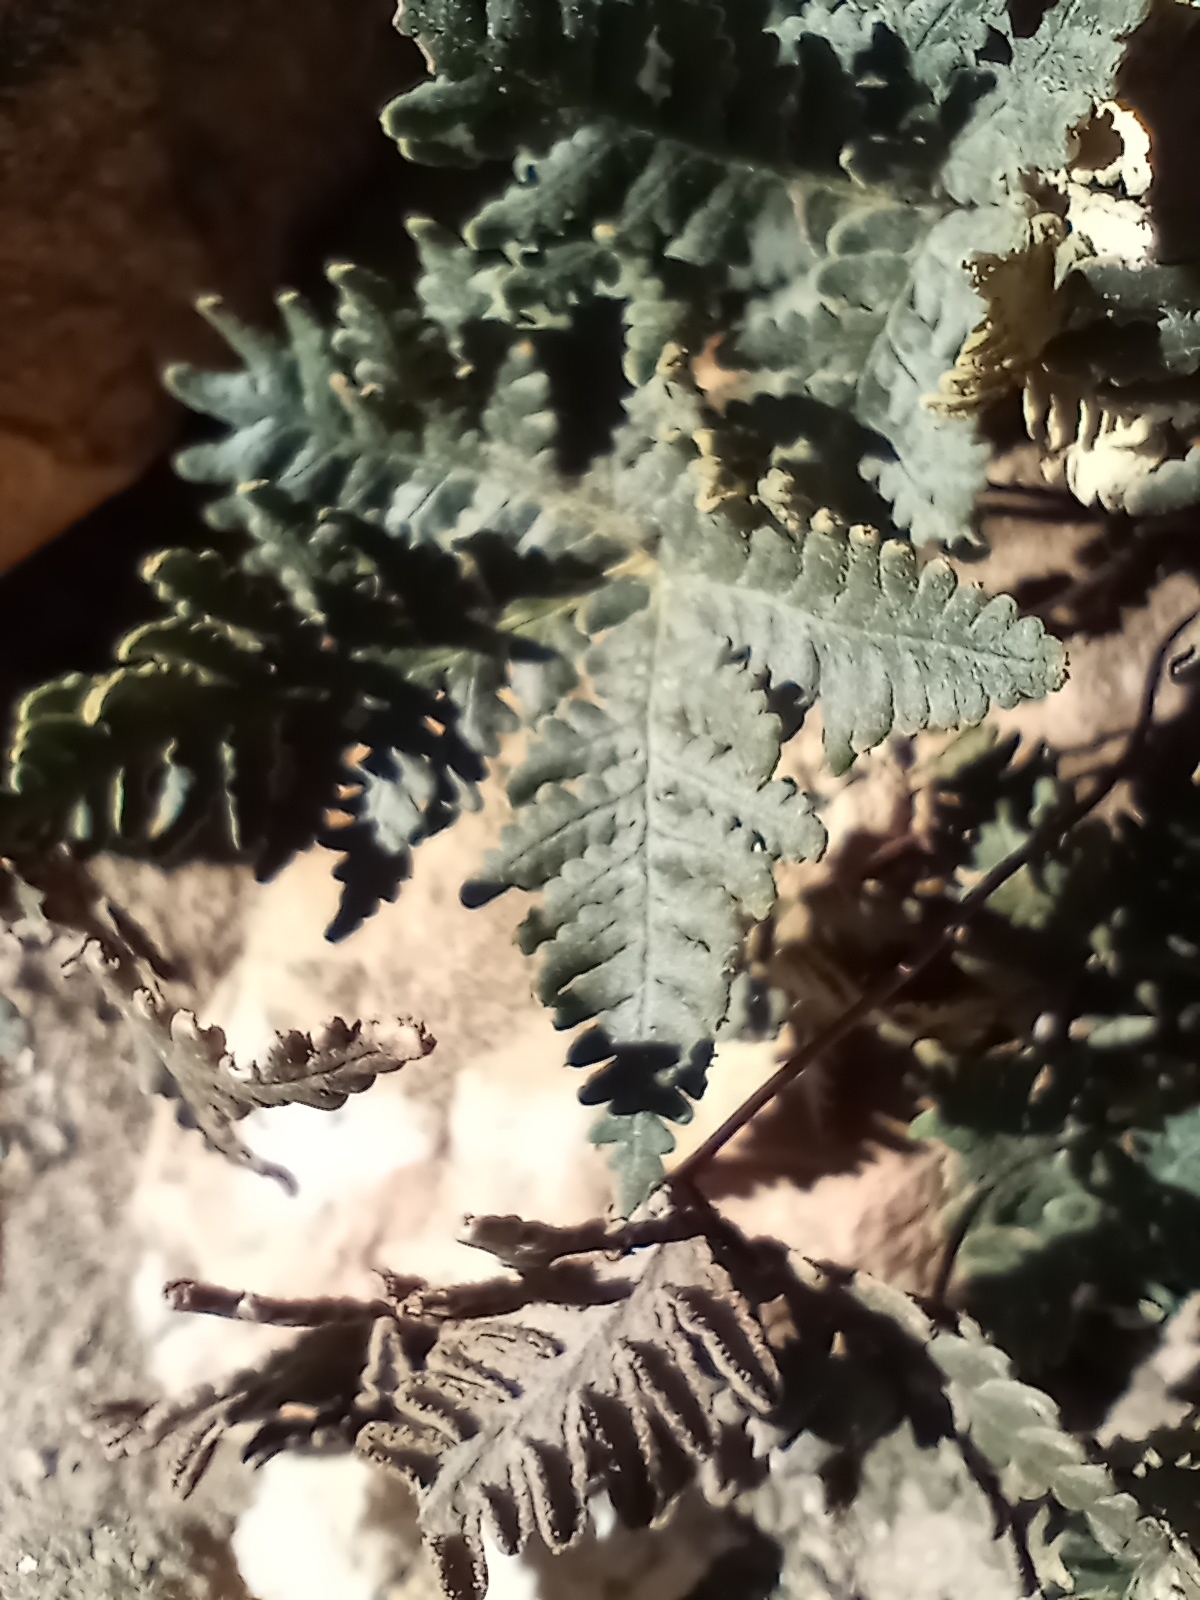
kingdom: Plantae
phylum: Tracheophyta
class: Polypodiopsida
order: Polypodiales
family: Pteridaceae
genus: Notholaena
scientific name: Notholaena standleyi
